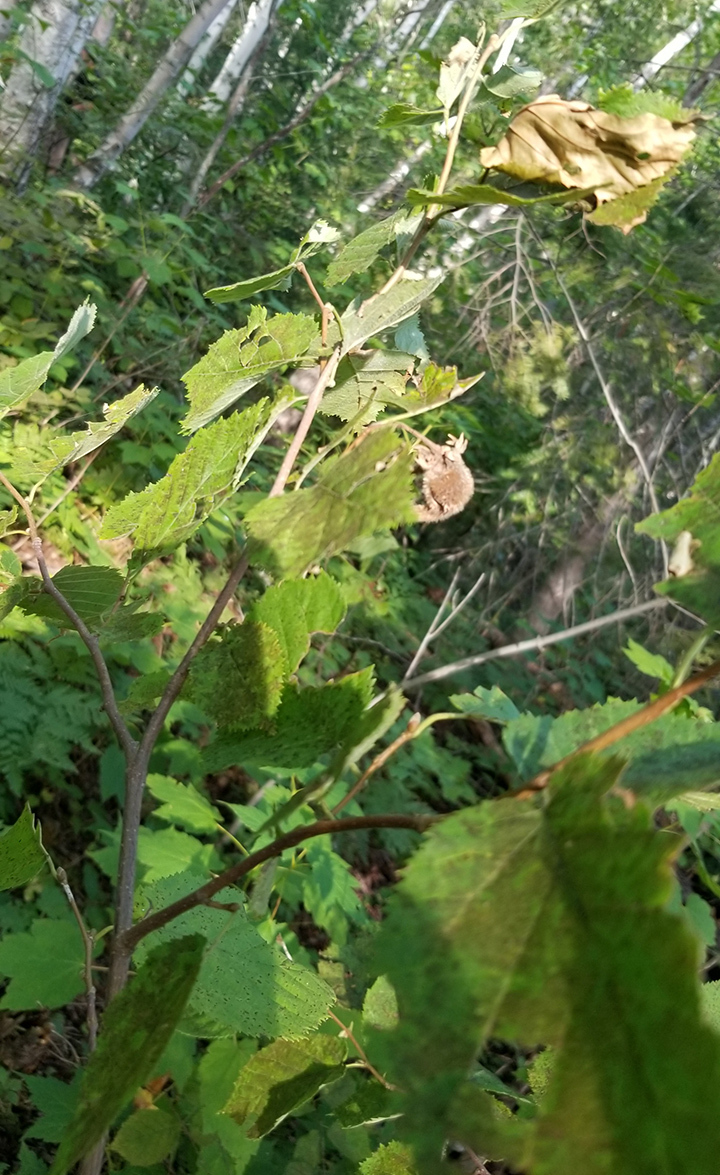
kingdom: Plantae
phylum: Tracheophyta
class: Magnoliopsida
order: Fagales
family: Betulaceae
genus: Corylus
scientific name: Corylus cornuta
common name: Beaked hazel
